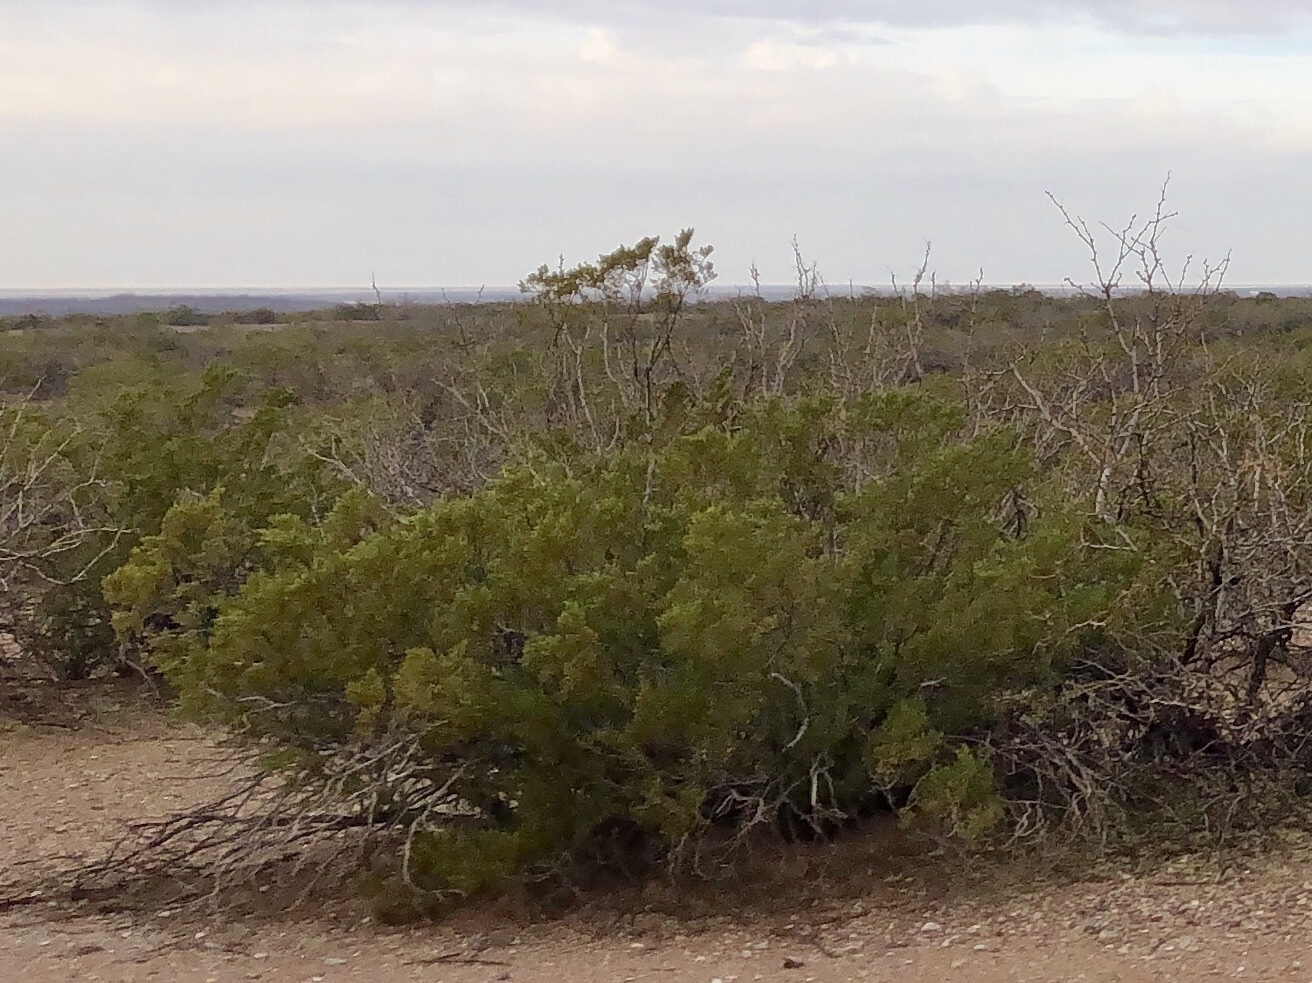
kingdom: Plantae
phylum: Tracheophyta
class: Magnoliopsida
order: Zygophyllales
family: Zygophyllaceae
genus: Larrea
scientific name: Larrea tridentata
